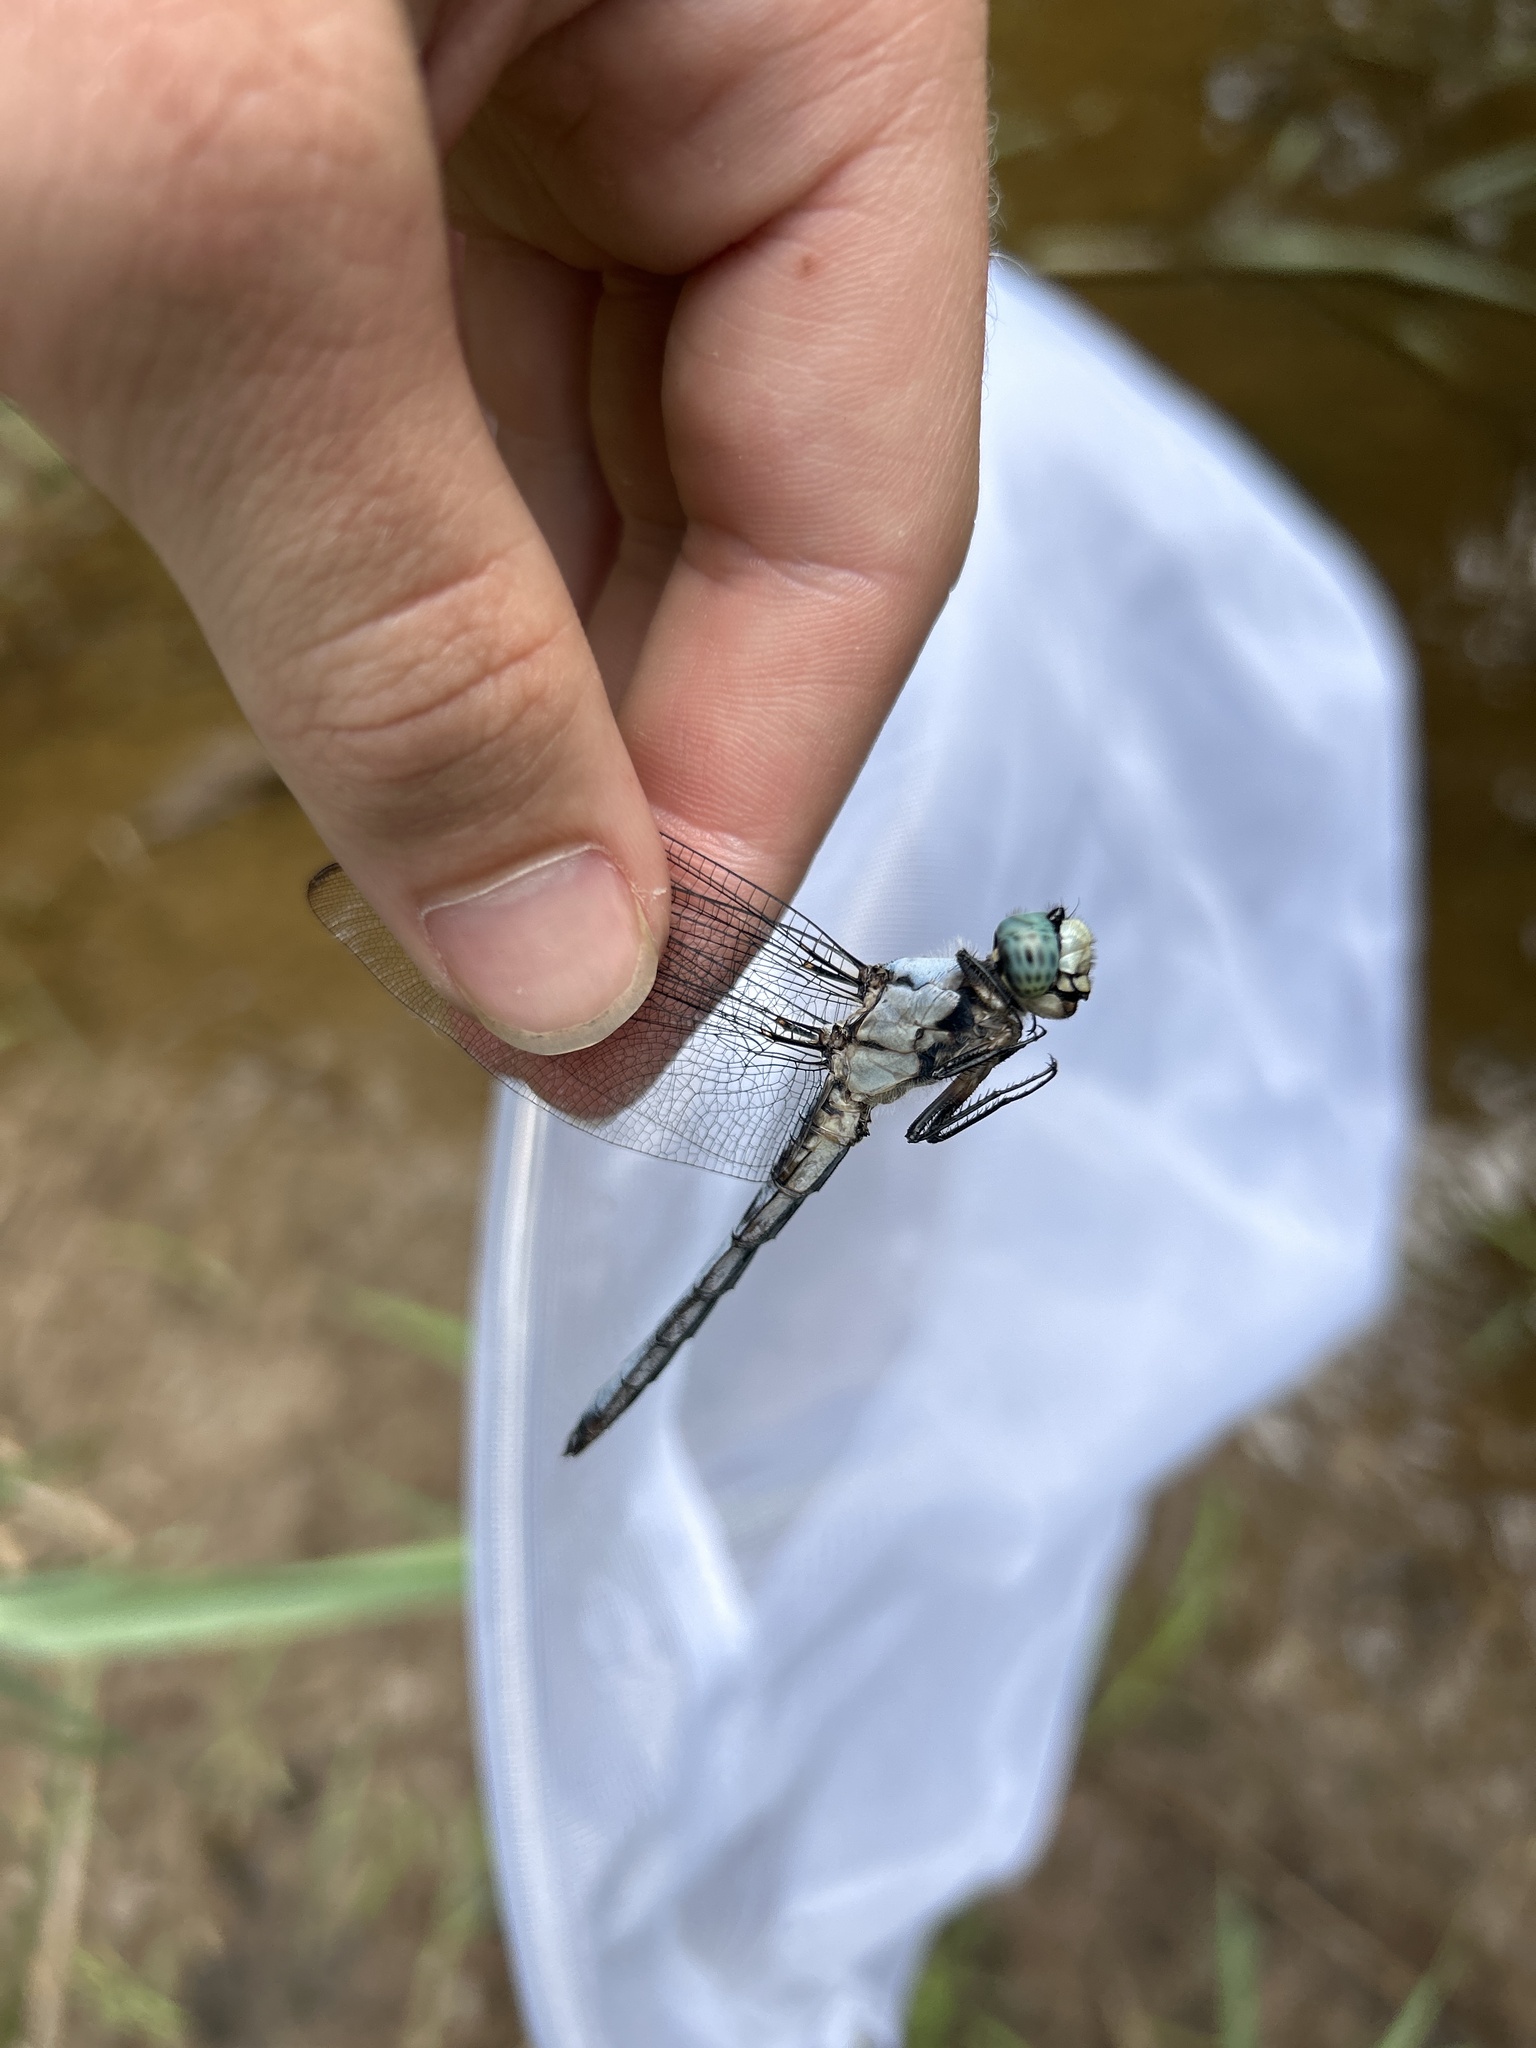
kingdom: Animalia
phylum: Arthropoda
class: Insecta
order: Odonata
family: Libellulidae
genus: Libellula
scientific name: Libellula vibrans
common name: Great blue skimmer
